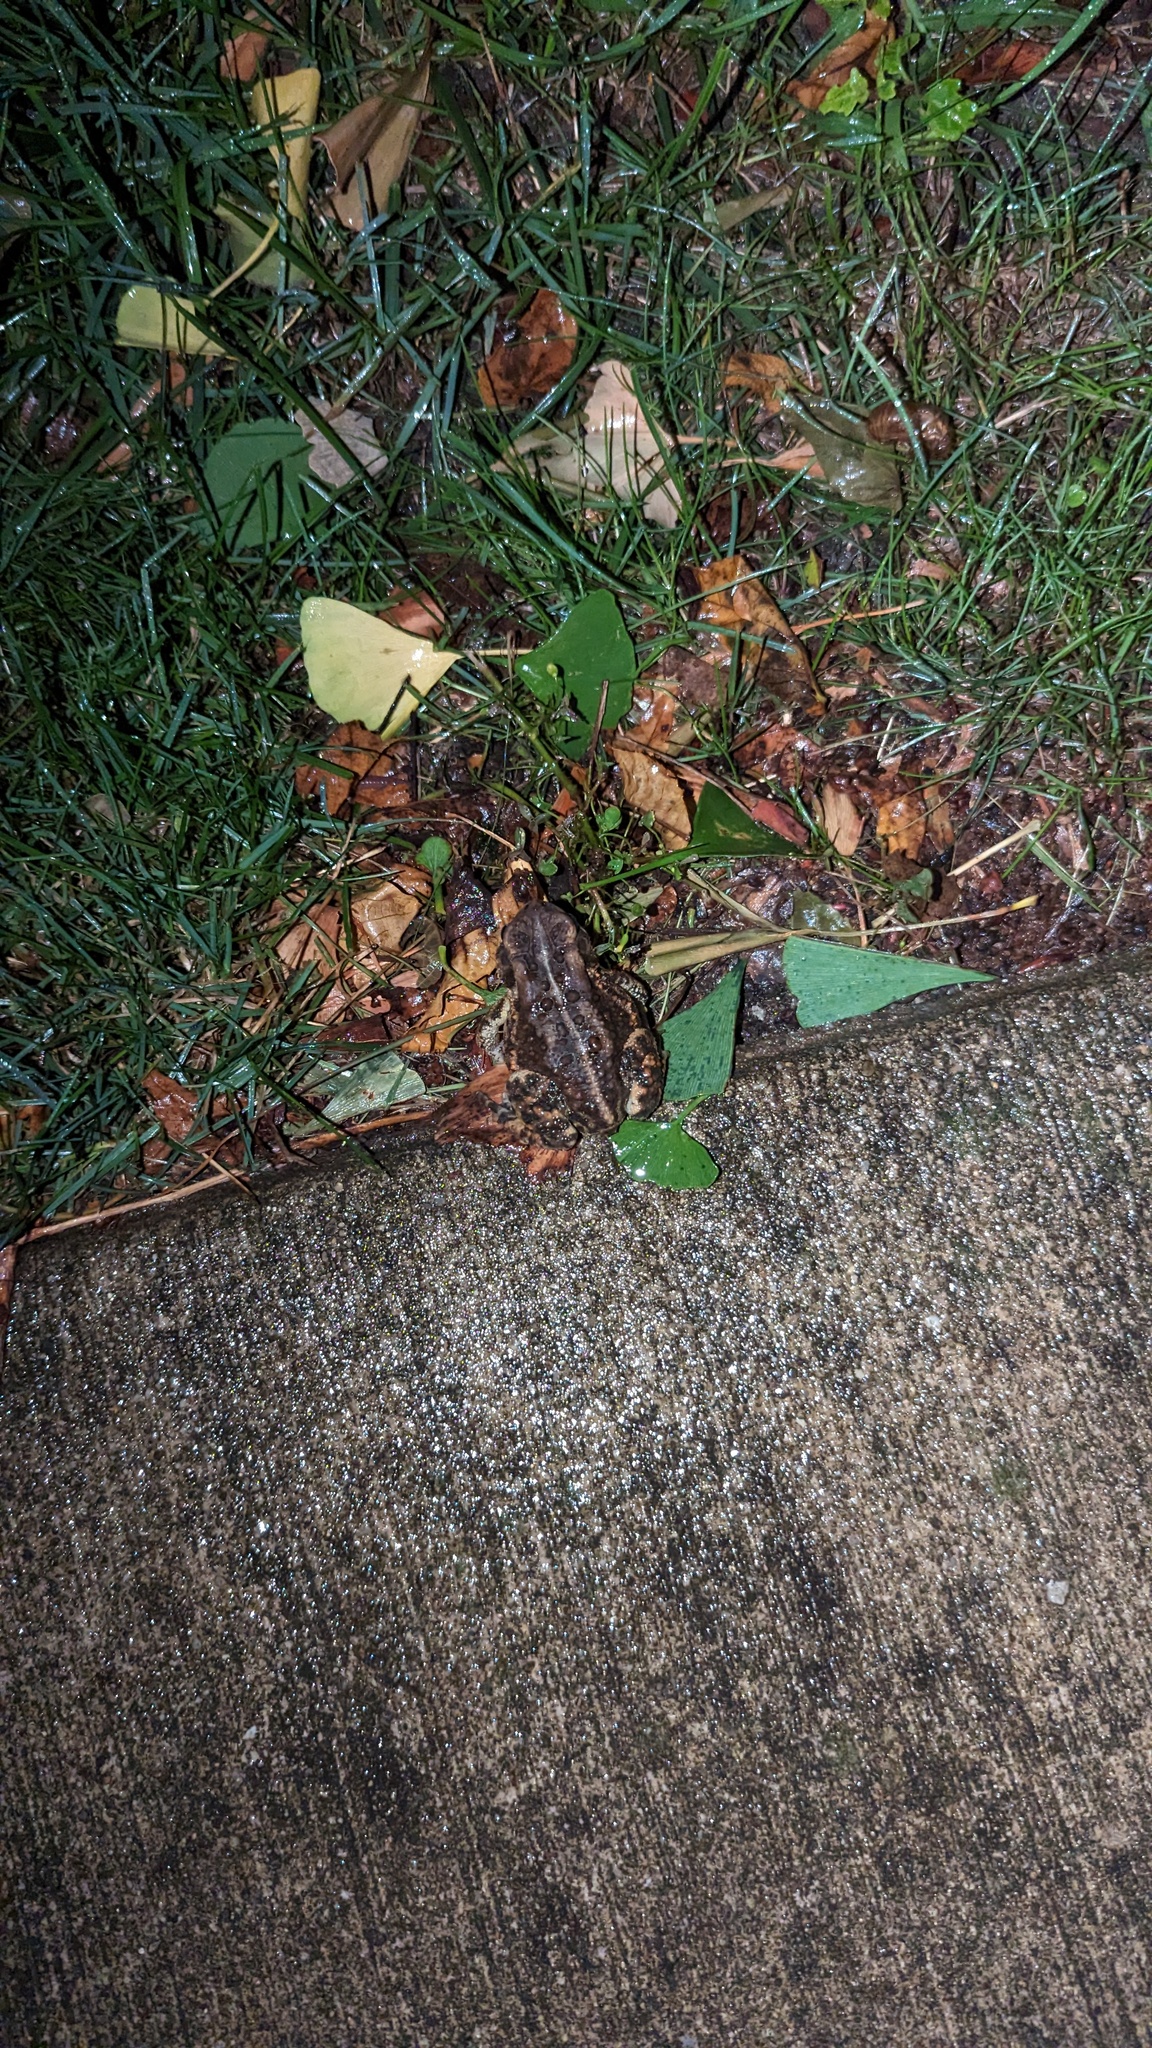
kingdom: Animalia
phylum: Chordata
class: Amphibia
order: Anura
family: Bufonidae
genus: Anaxyrus
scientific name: Anaxyrus americanus
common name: American toad
